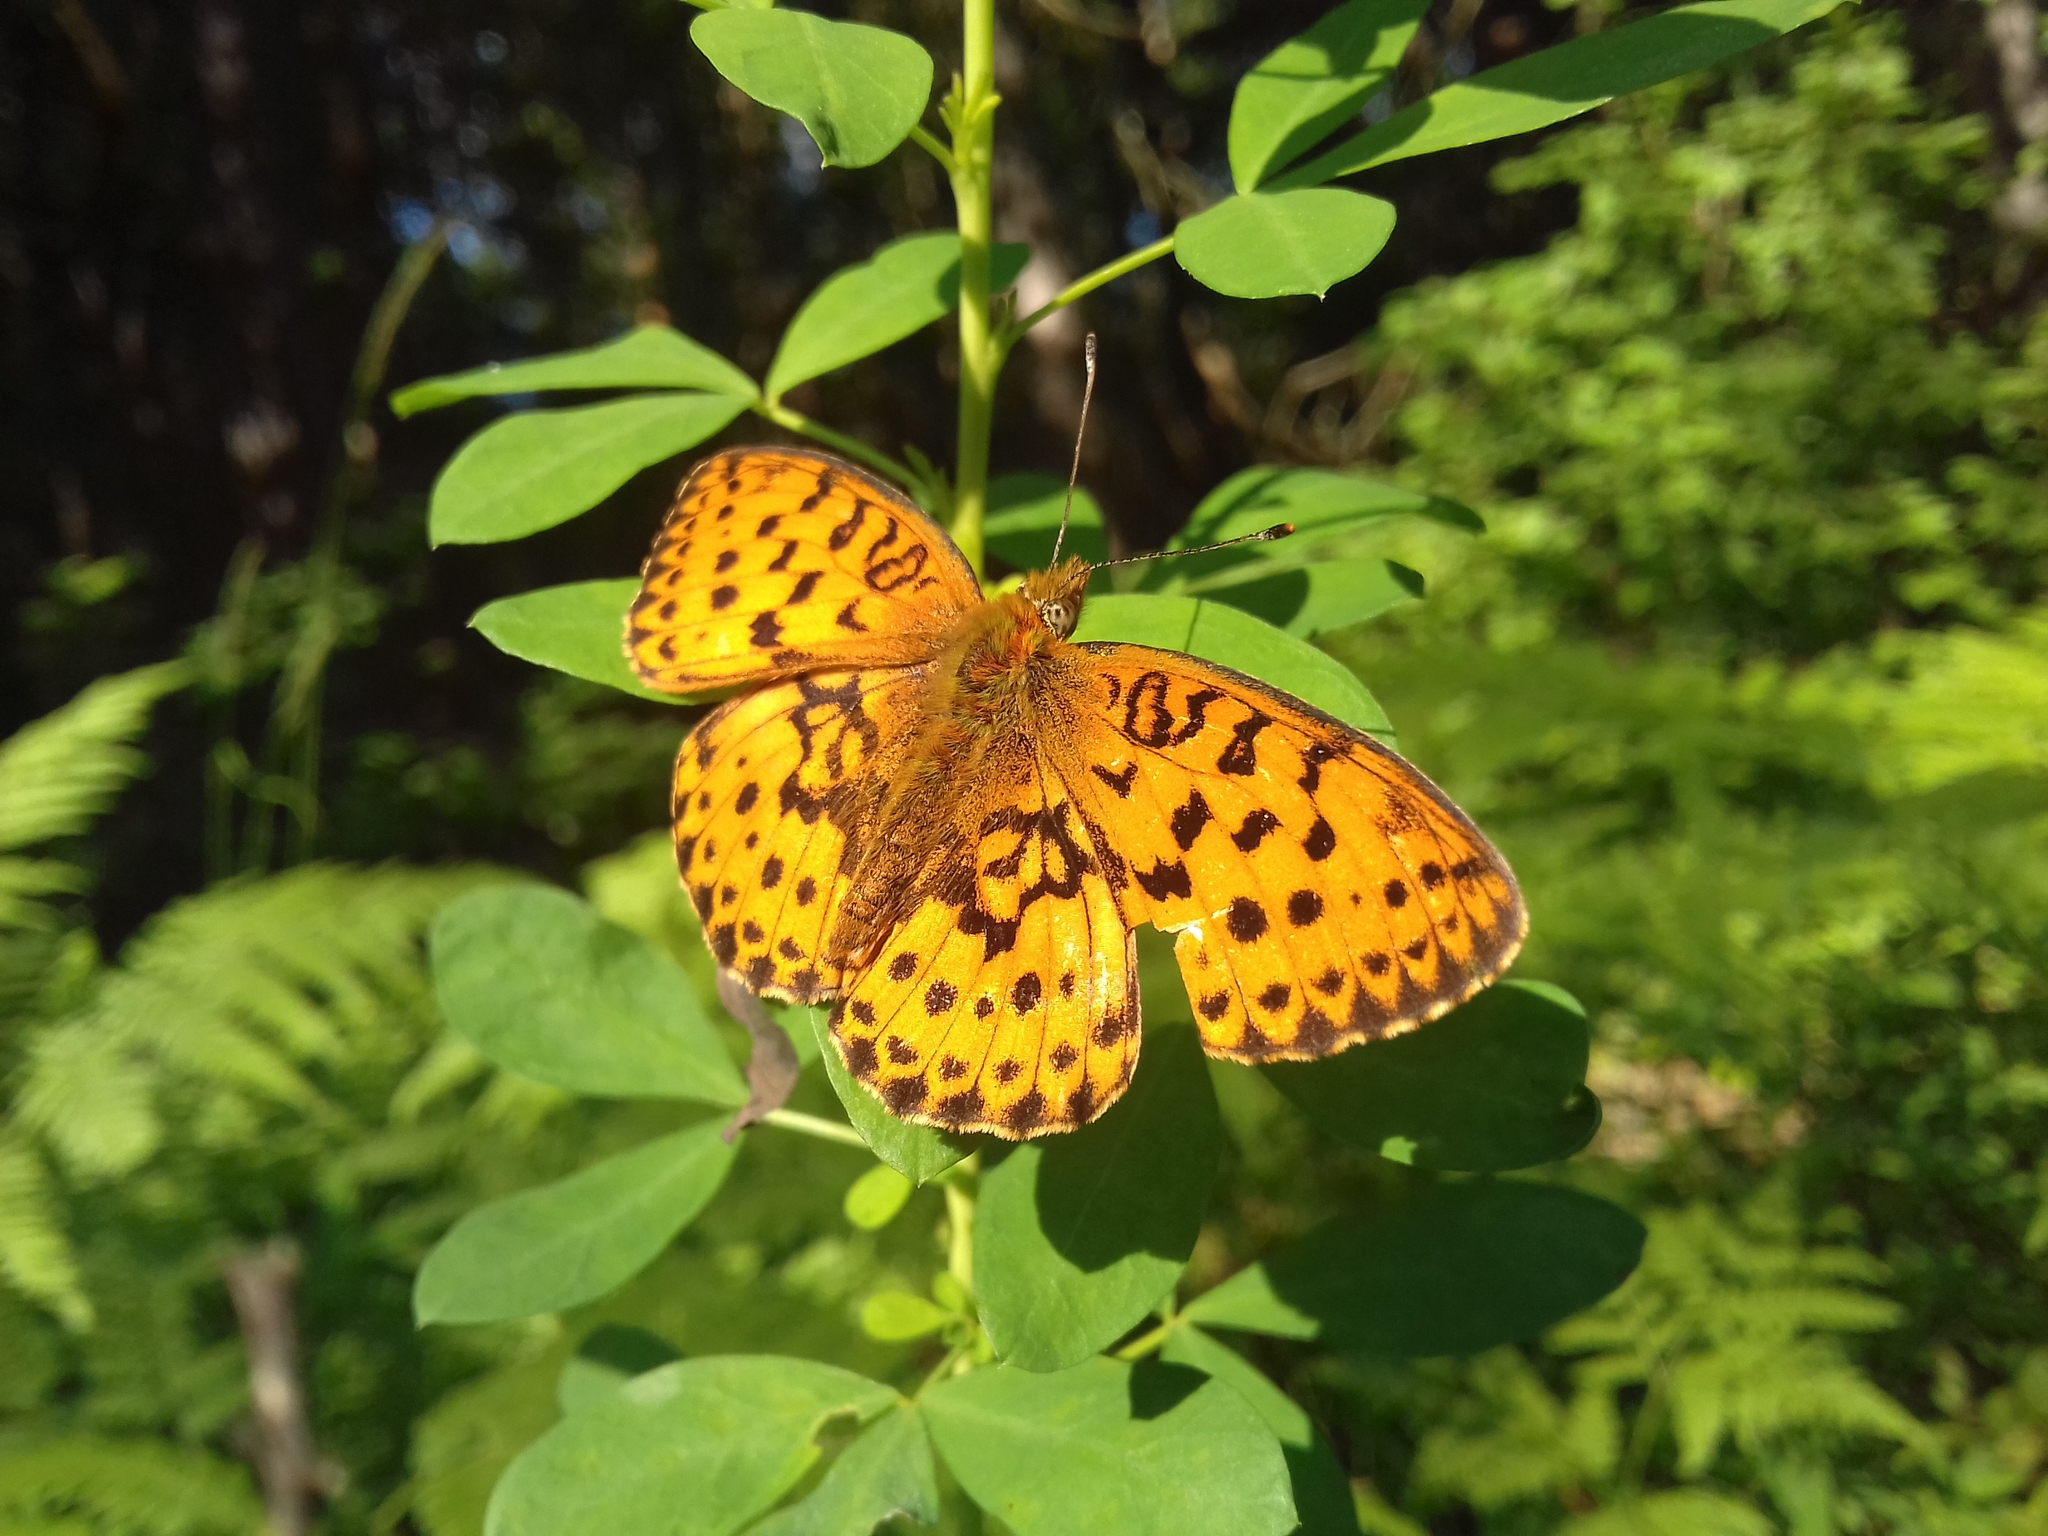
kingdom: Animalia
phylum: Arthropoda
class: Insecta
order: Lepidoptera
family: Nymphalidae
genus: Brenthis
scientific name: Brenthis daphne
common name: Marbled fritillary
